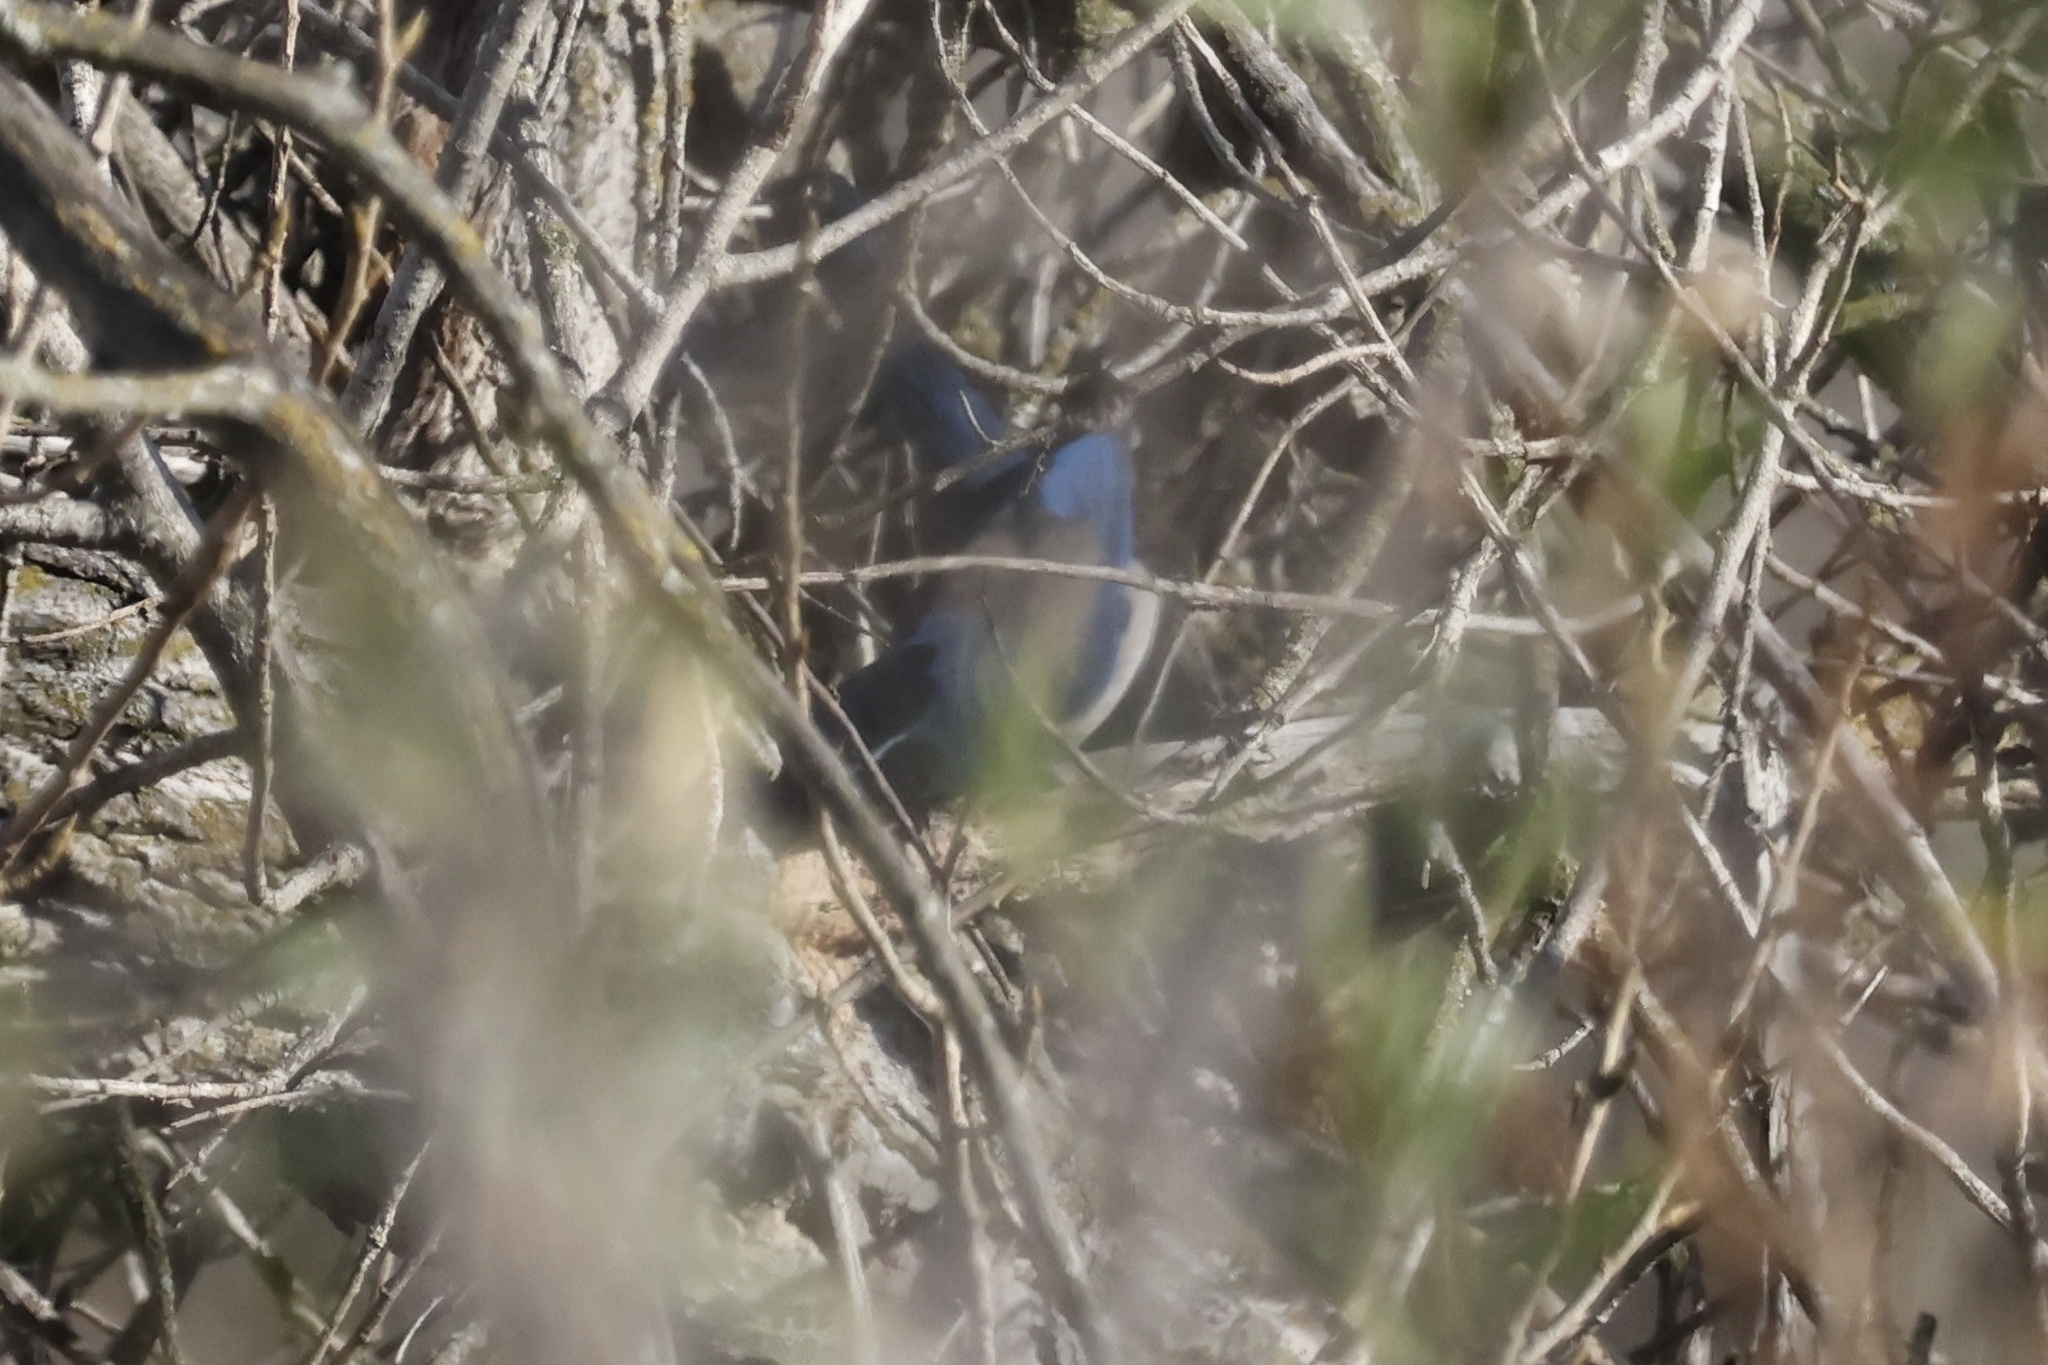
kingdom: Animalia
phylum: Chordata
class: Aves
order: Passeriformes
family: Corvidae
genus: Aphelocoma
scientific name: Aphelocoma californica
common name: California scrub-jay
